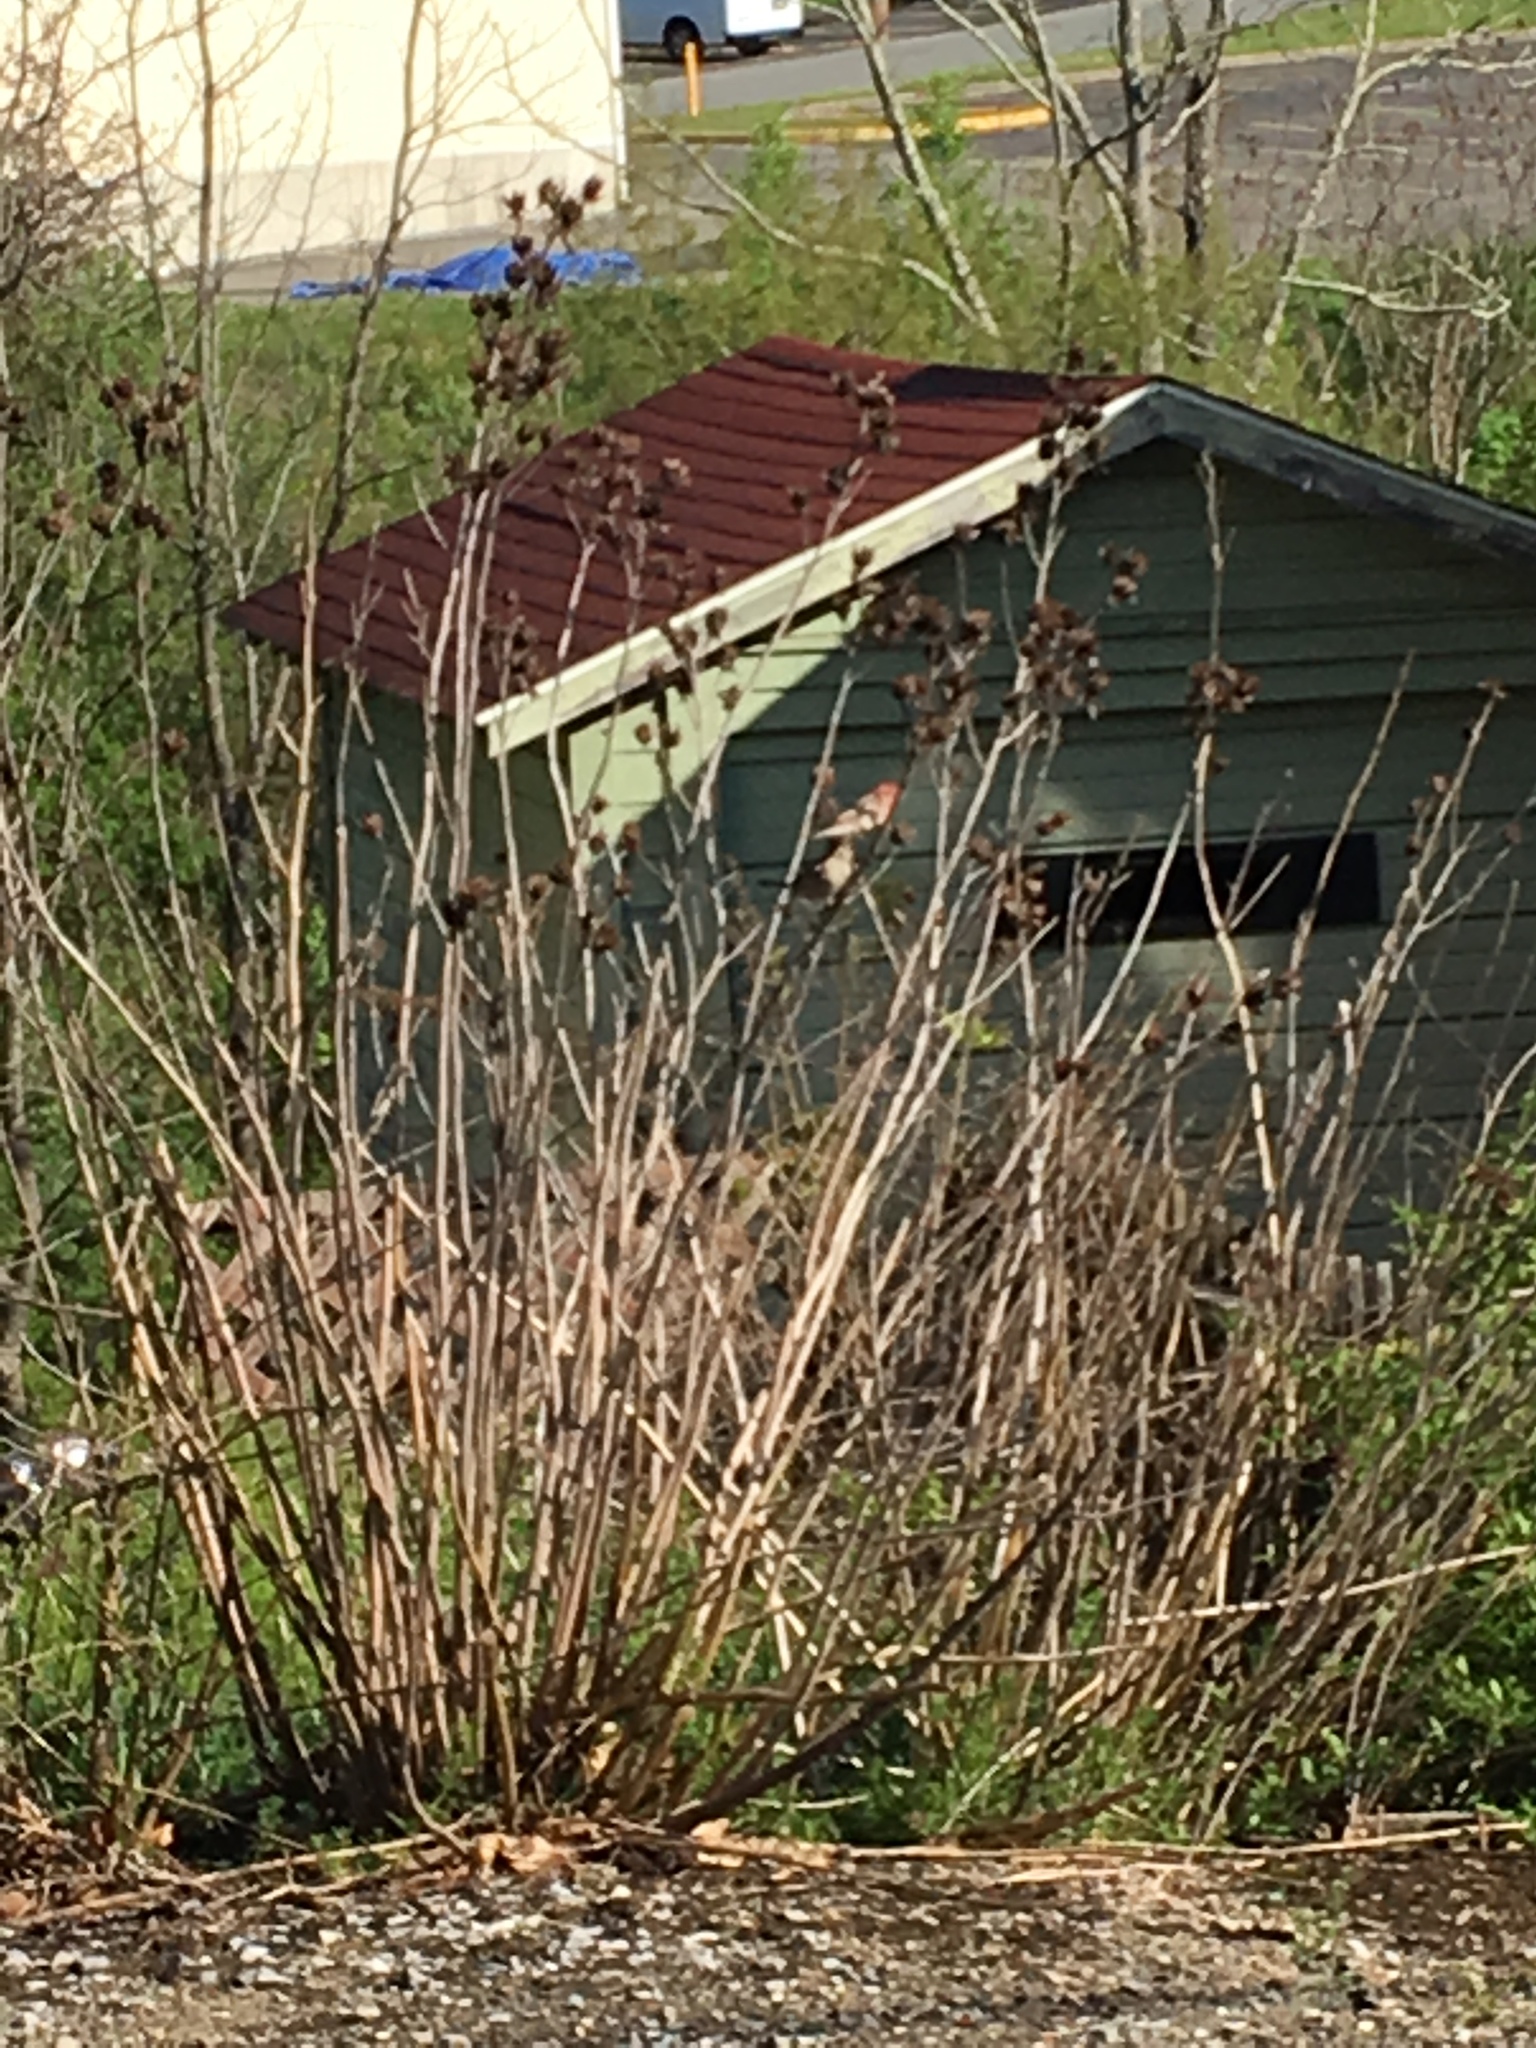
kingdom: Animalia
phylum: Chordata
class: Aves
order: Passeriformes
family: Fringillidae
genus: Haemorhous
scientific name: Haemorhous mexicanus
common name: House finch
